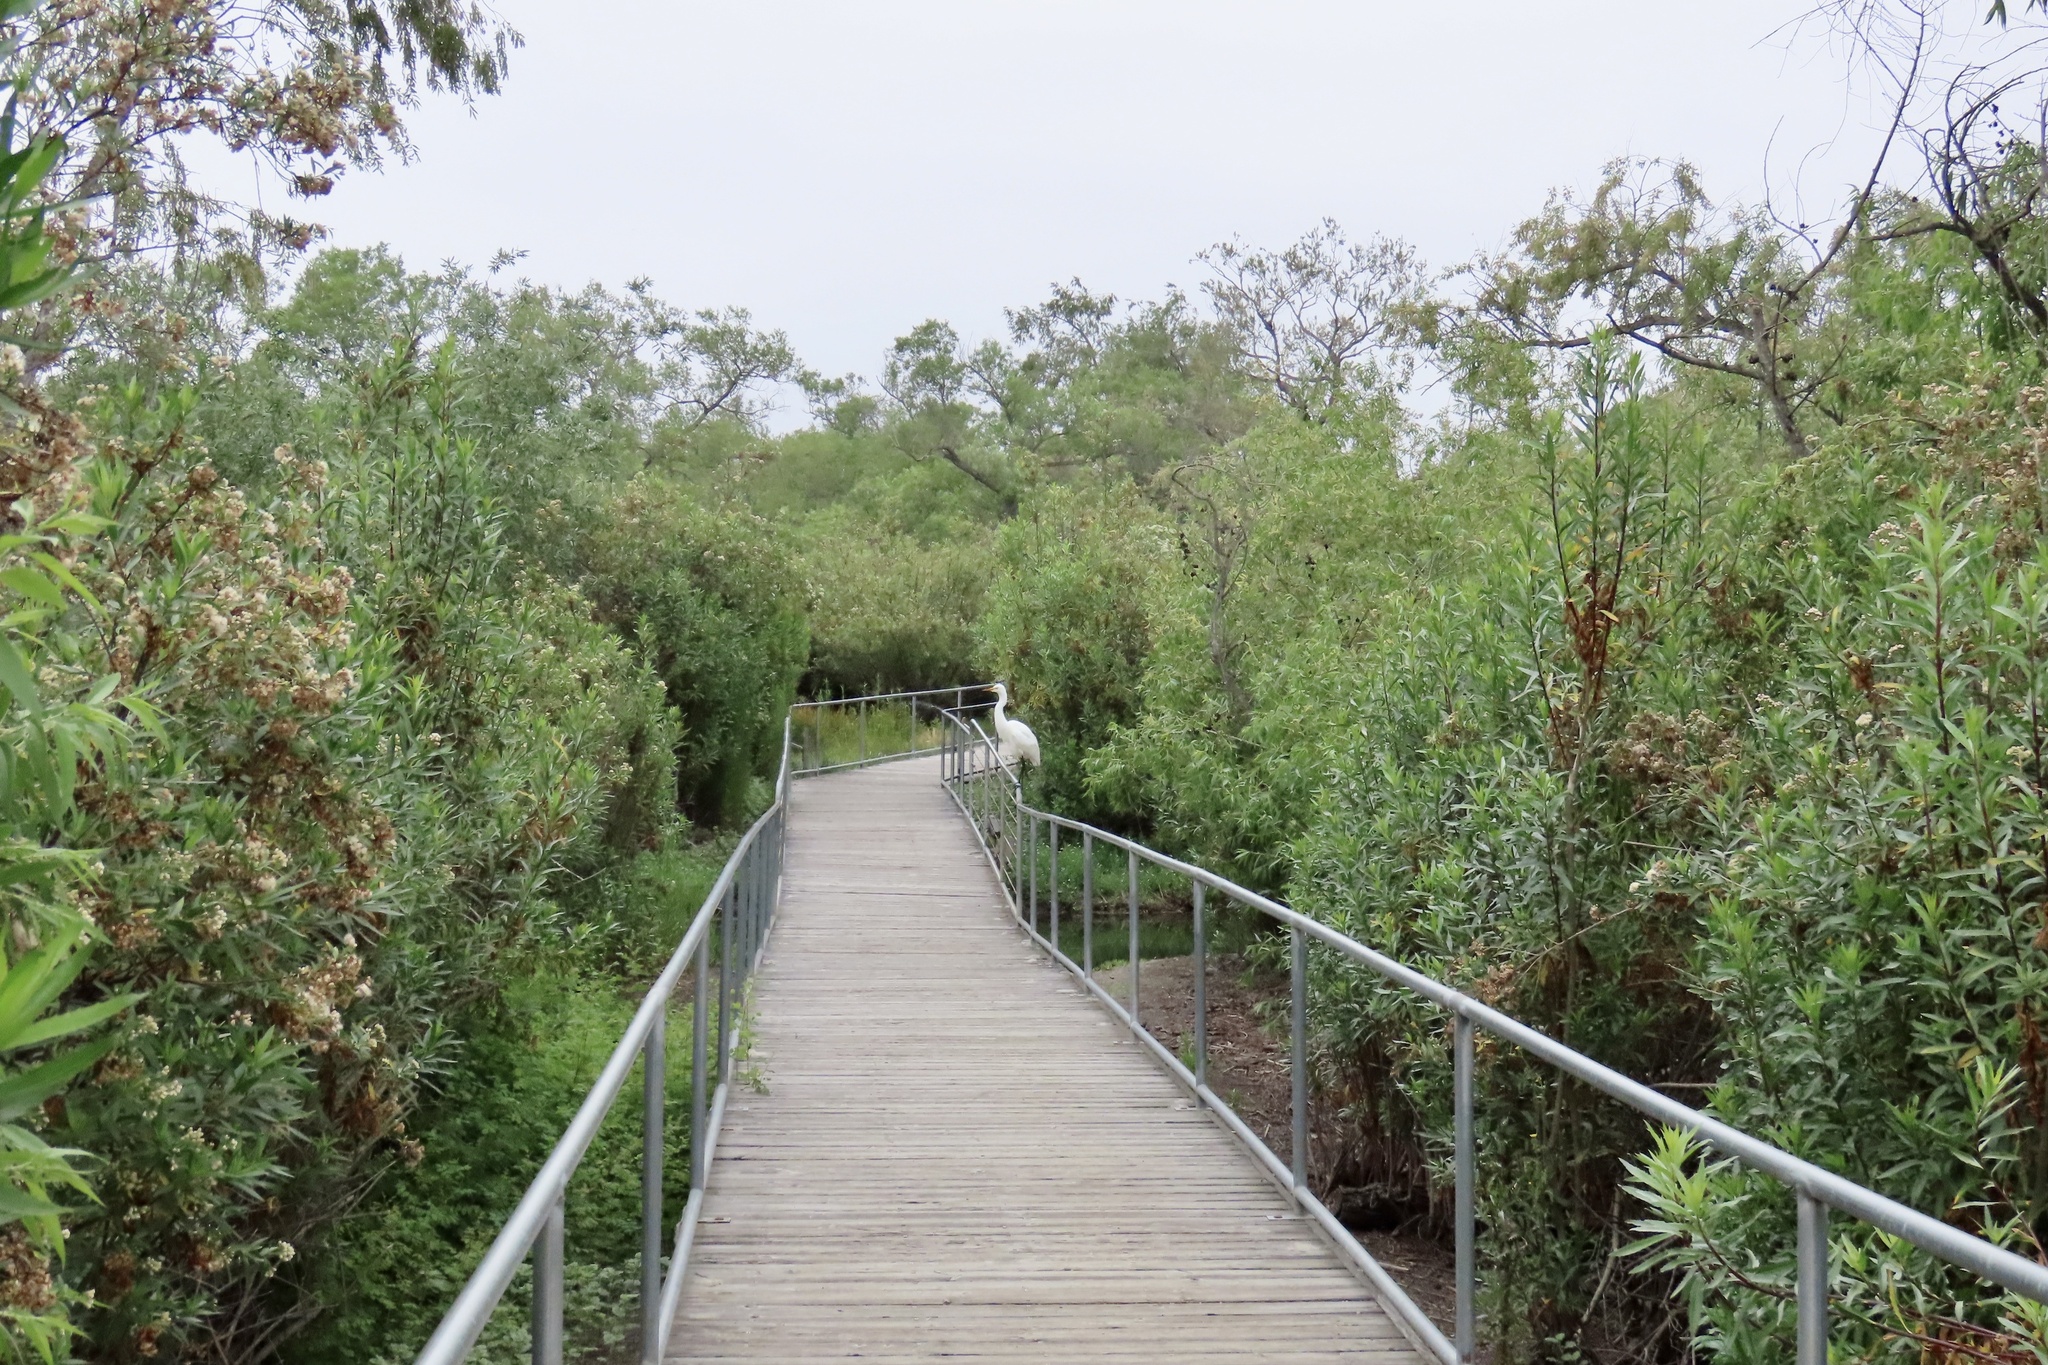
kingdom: Animalia
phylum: Chordata
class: Aves
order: Pelecaniformes
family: Ardeidae
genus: Ardea
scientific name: Ardea alba
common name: Great egret
